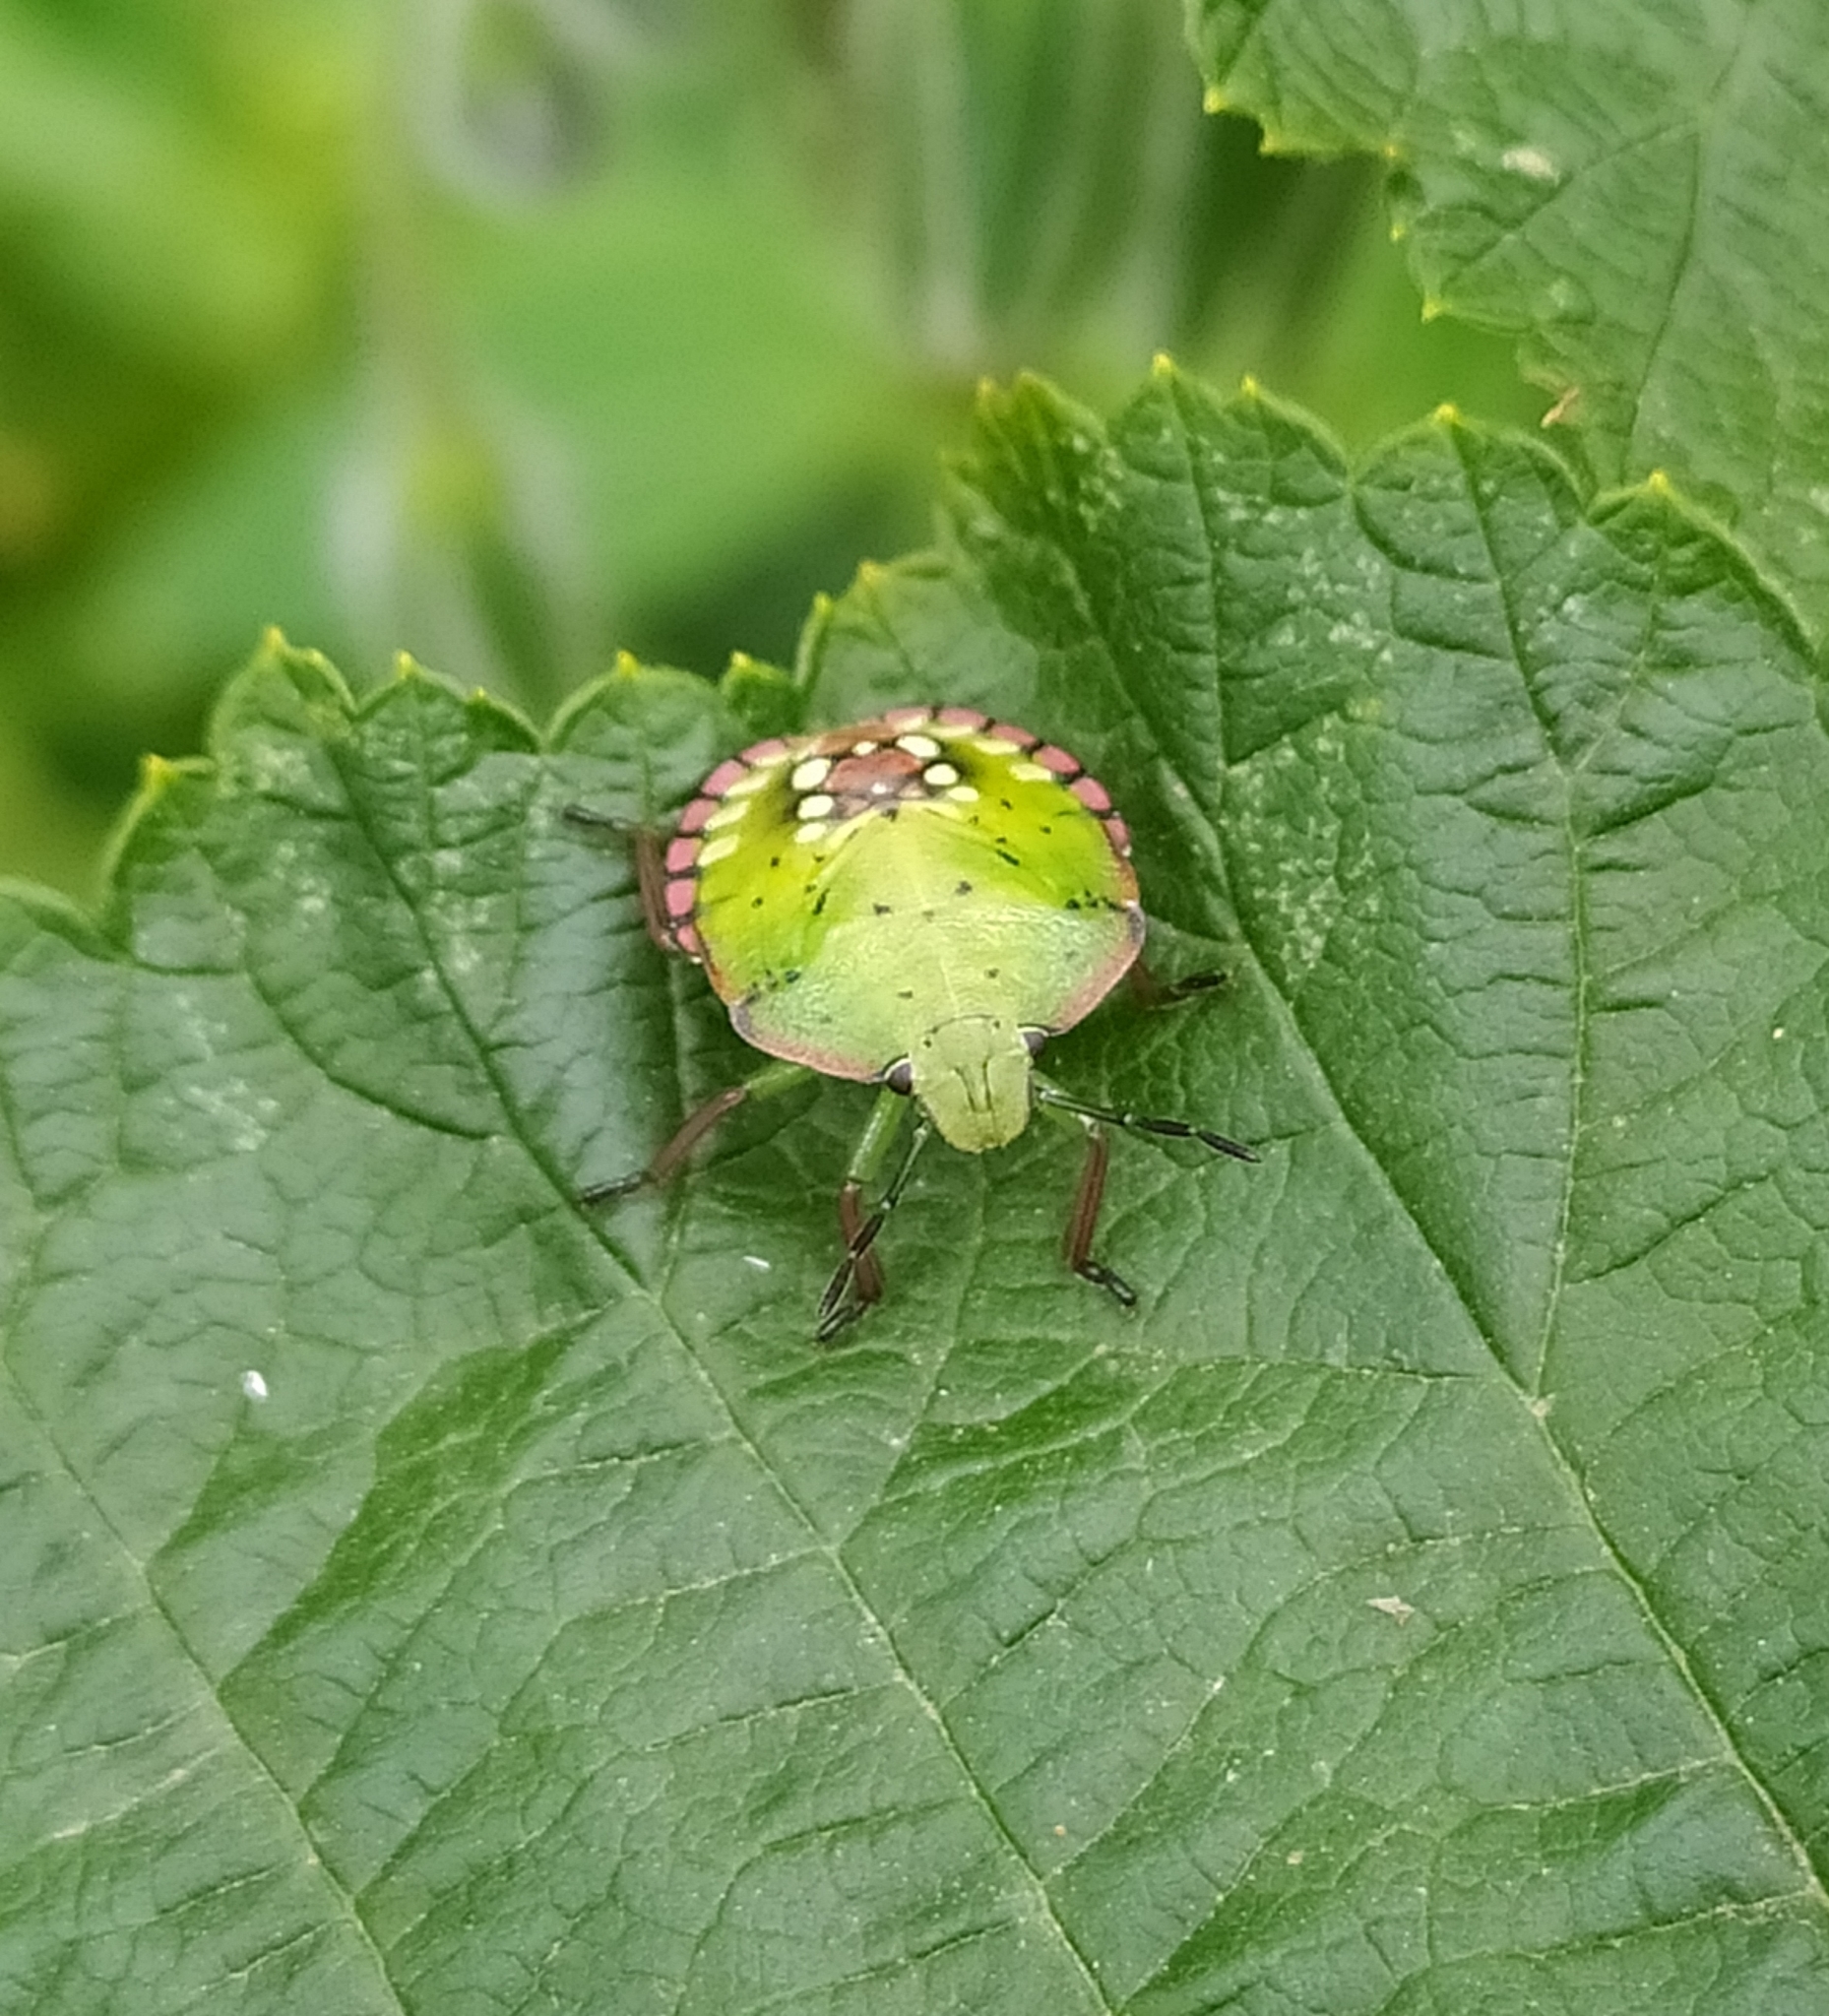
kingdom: Animalia
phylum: Arthropoda
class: Insecta
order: Hemiptera
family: Pentatomidae
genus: Nezara
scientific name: Nezara viridula
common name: Southern green stink bug
